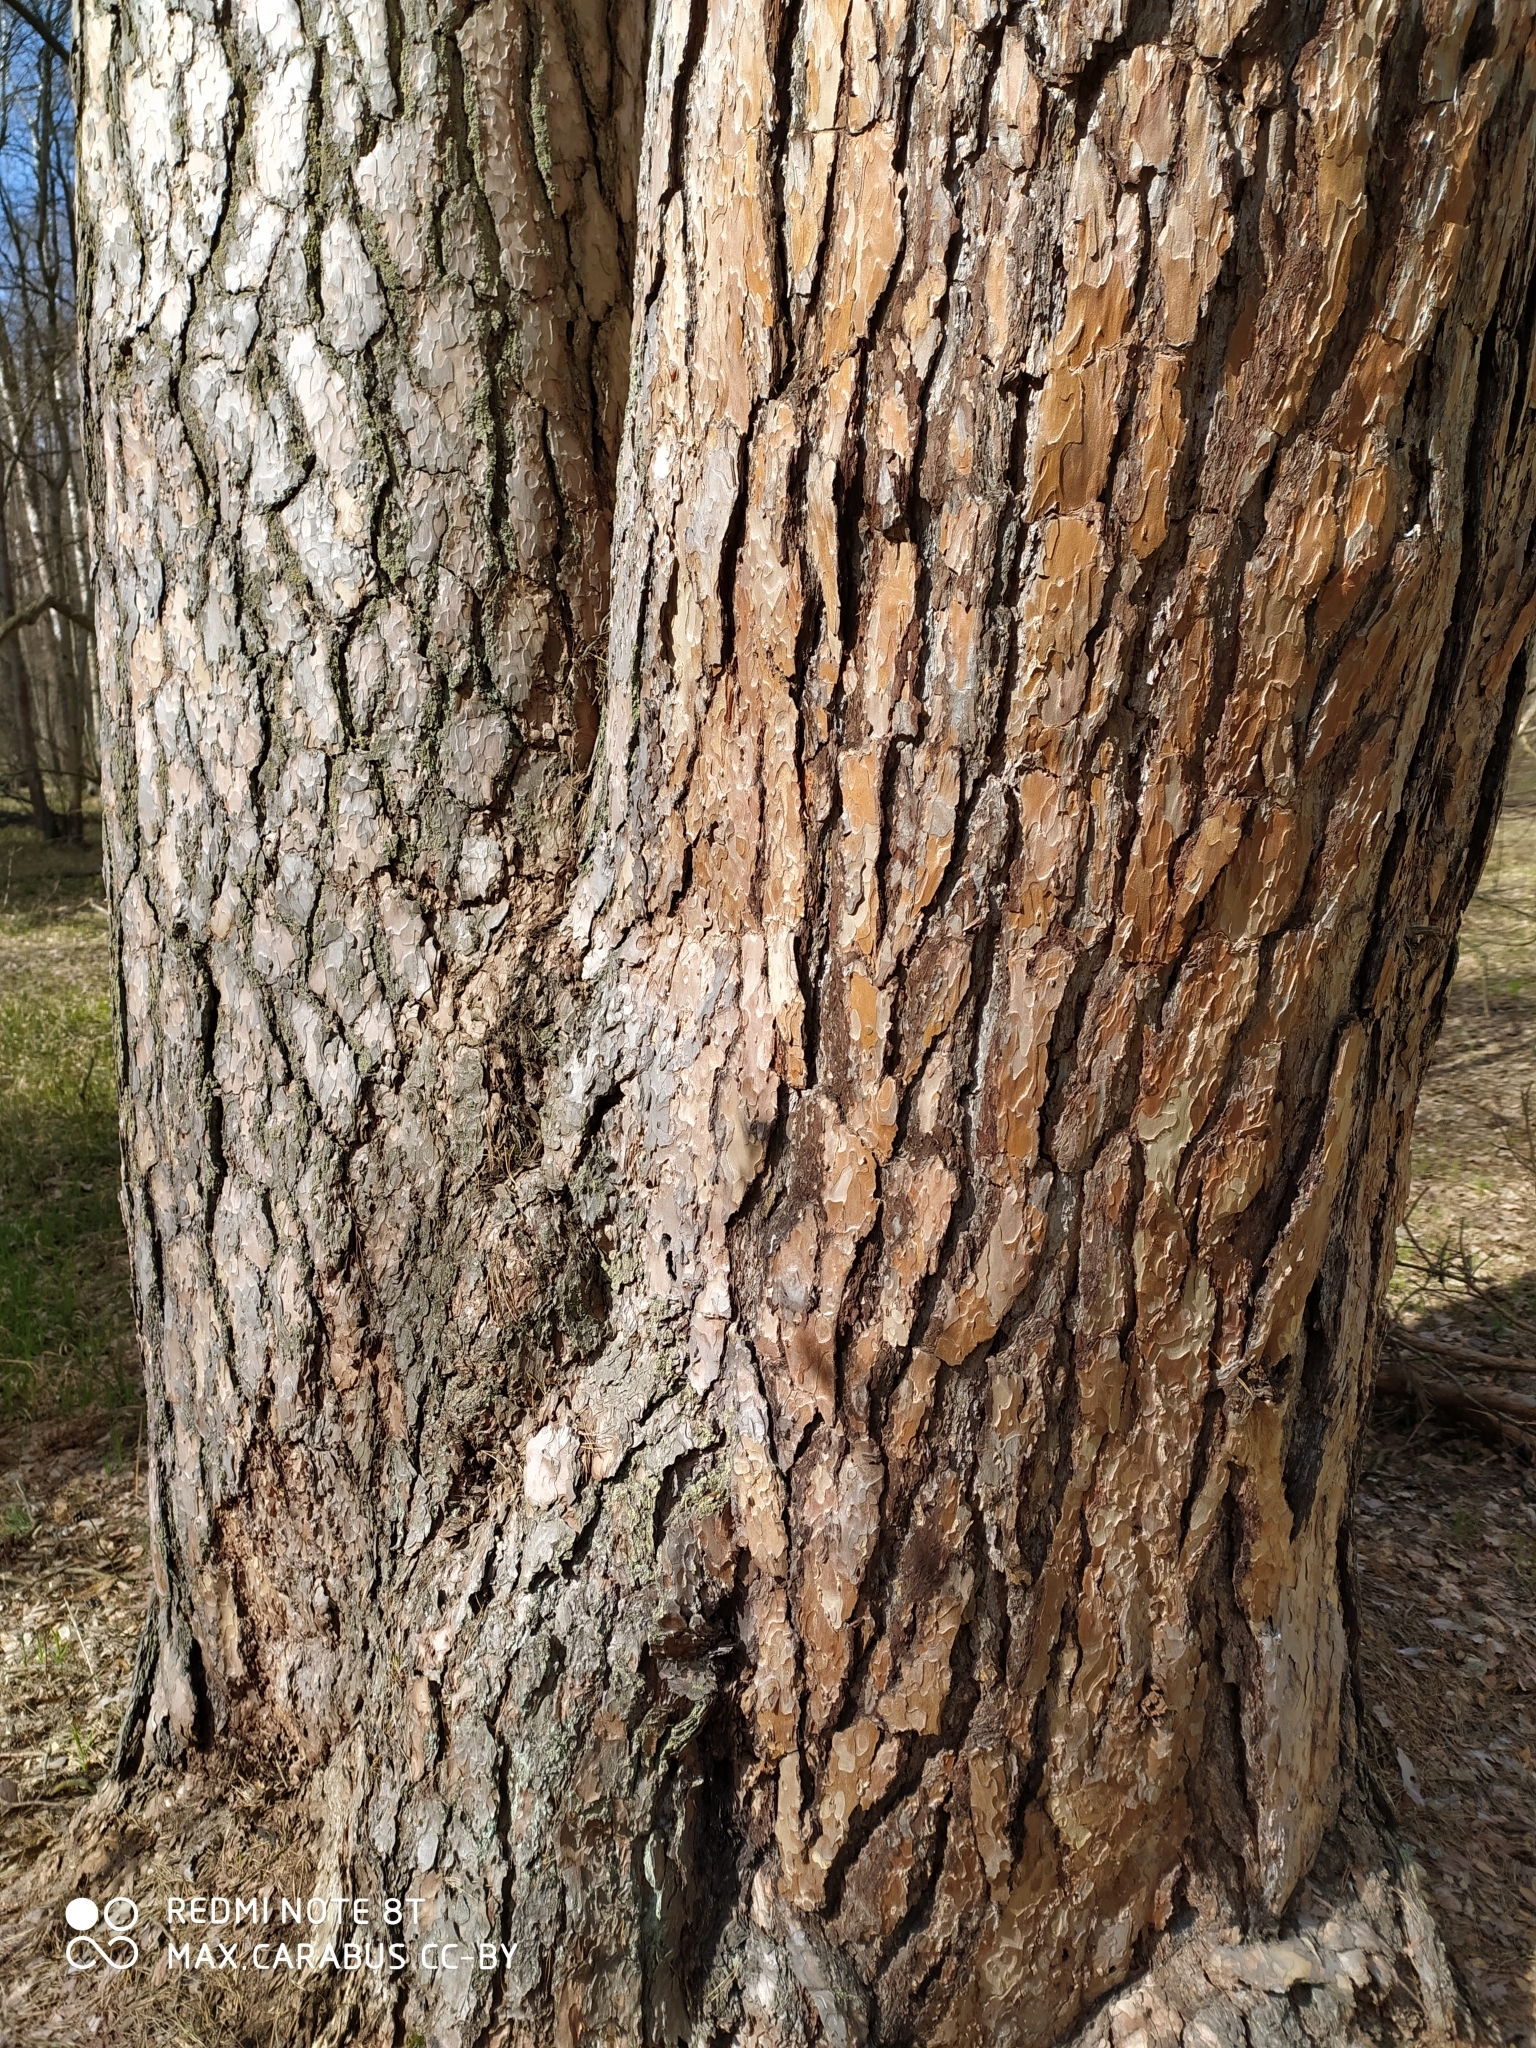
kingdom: Plantae
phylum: Tracheophyta
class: Pinopsida
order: Pinales
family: Pinaceae
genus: Pinus
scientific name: Pinus sylvestris
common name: Scots pine
